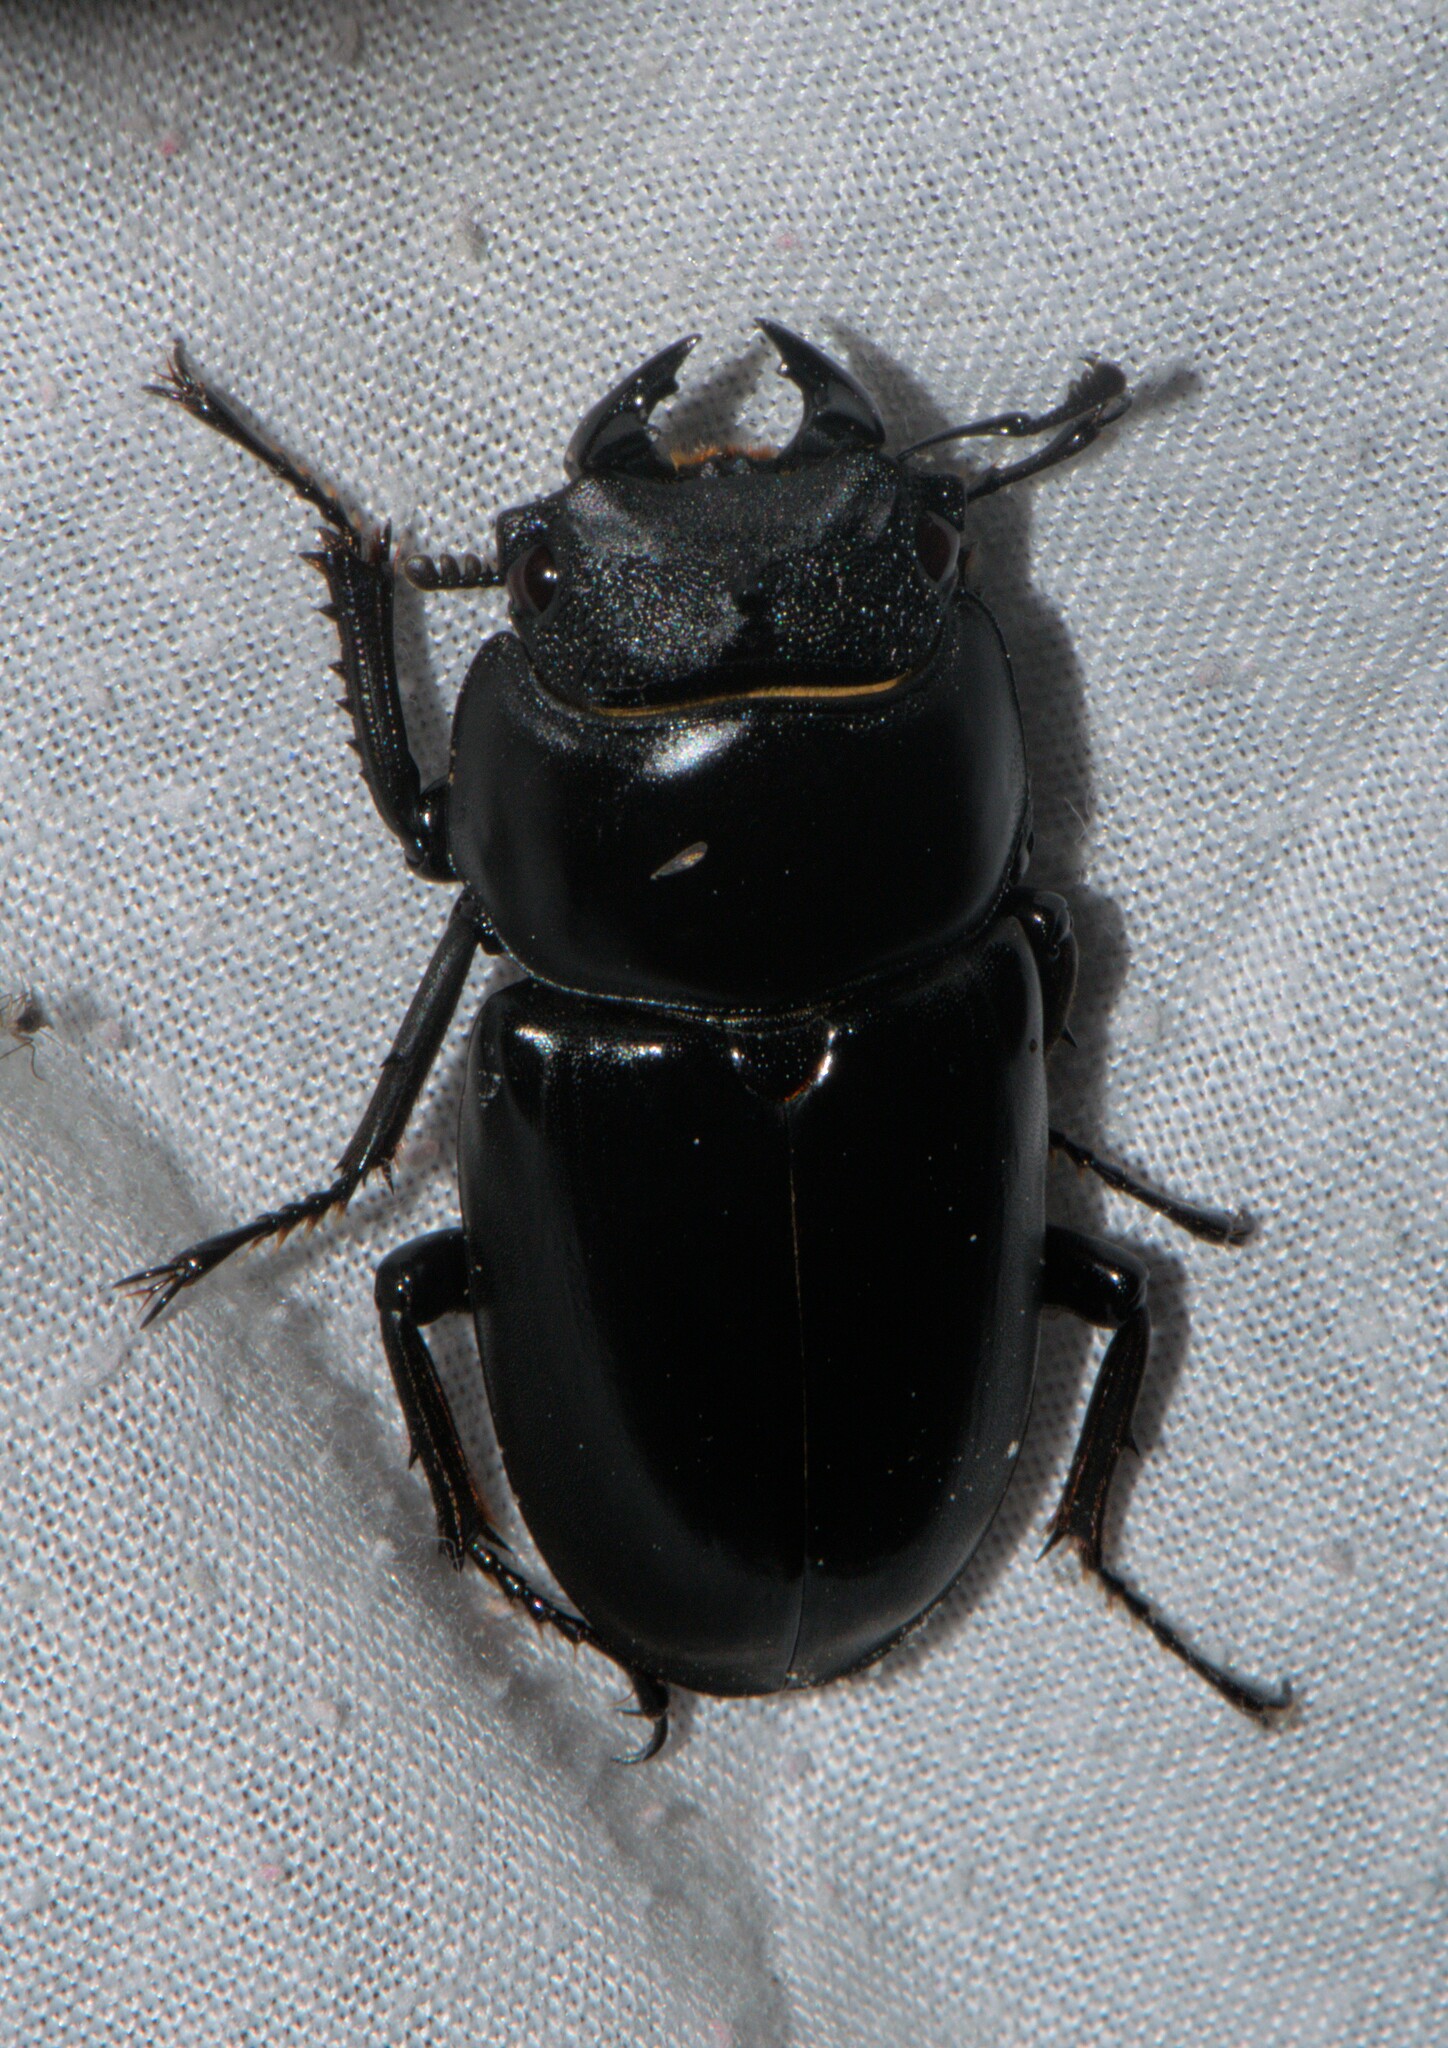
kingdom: Animalia
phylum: Arthropoda
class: Insecta
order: Coleoptera
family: Lucanidae
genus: Dorcus
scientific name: Dorcus nepalensis
